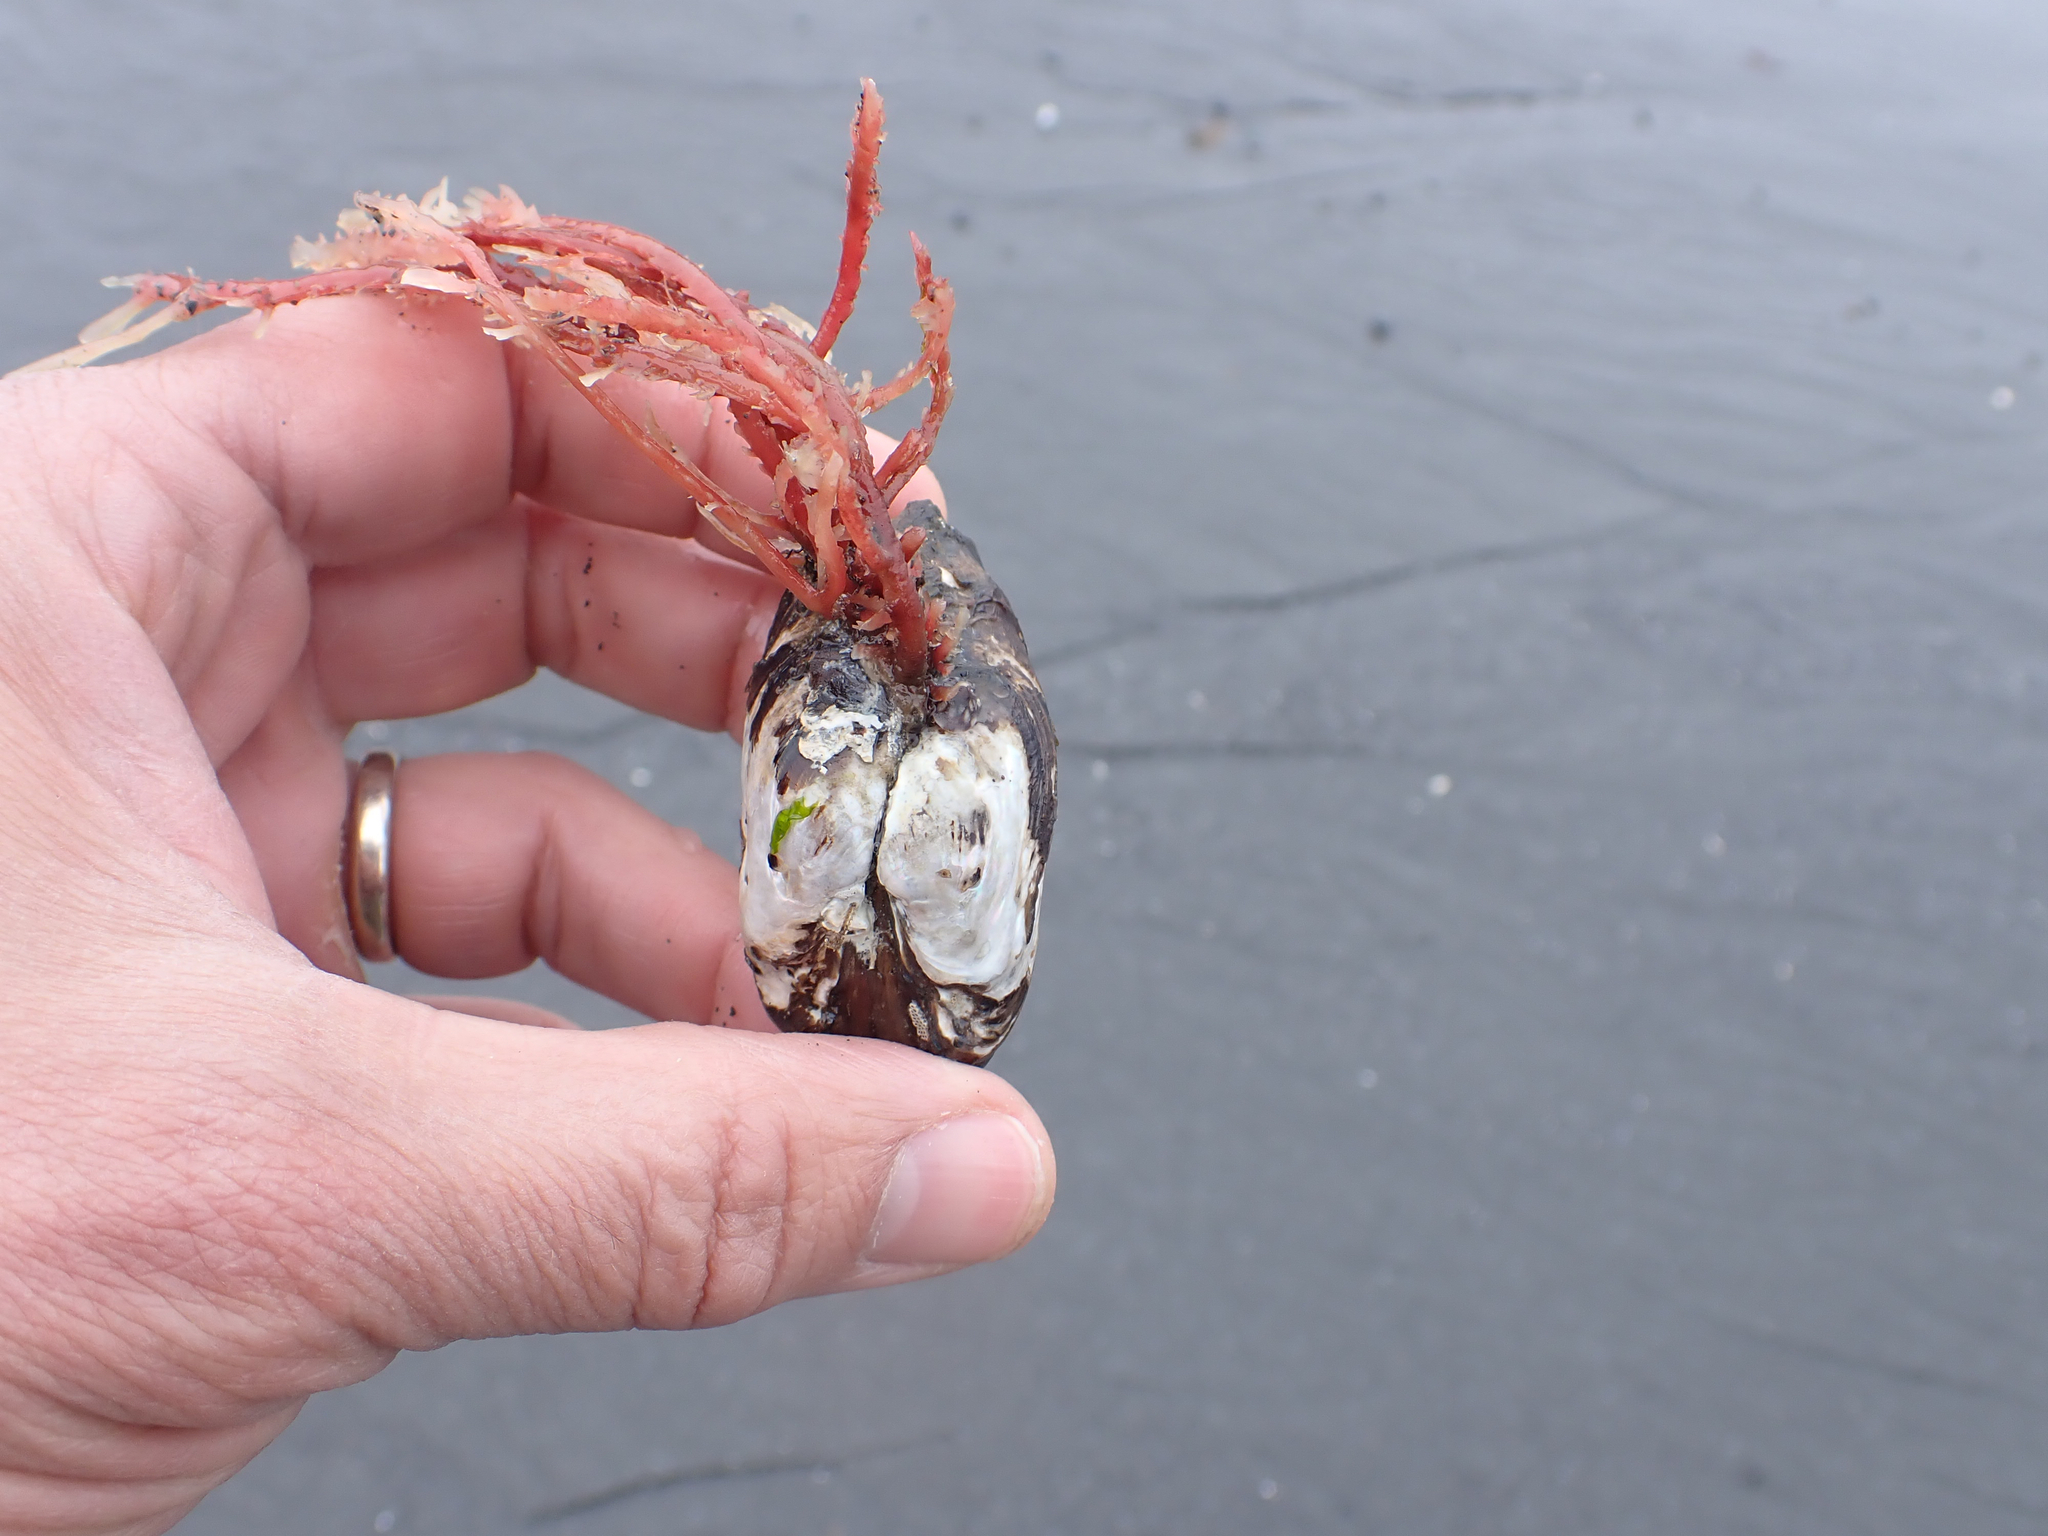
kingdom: Animalia
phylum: Mollusca
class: Bivalvia
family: Lyonsiidae
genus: Entodesma
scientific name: Entodesma navicula
